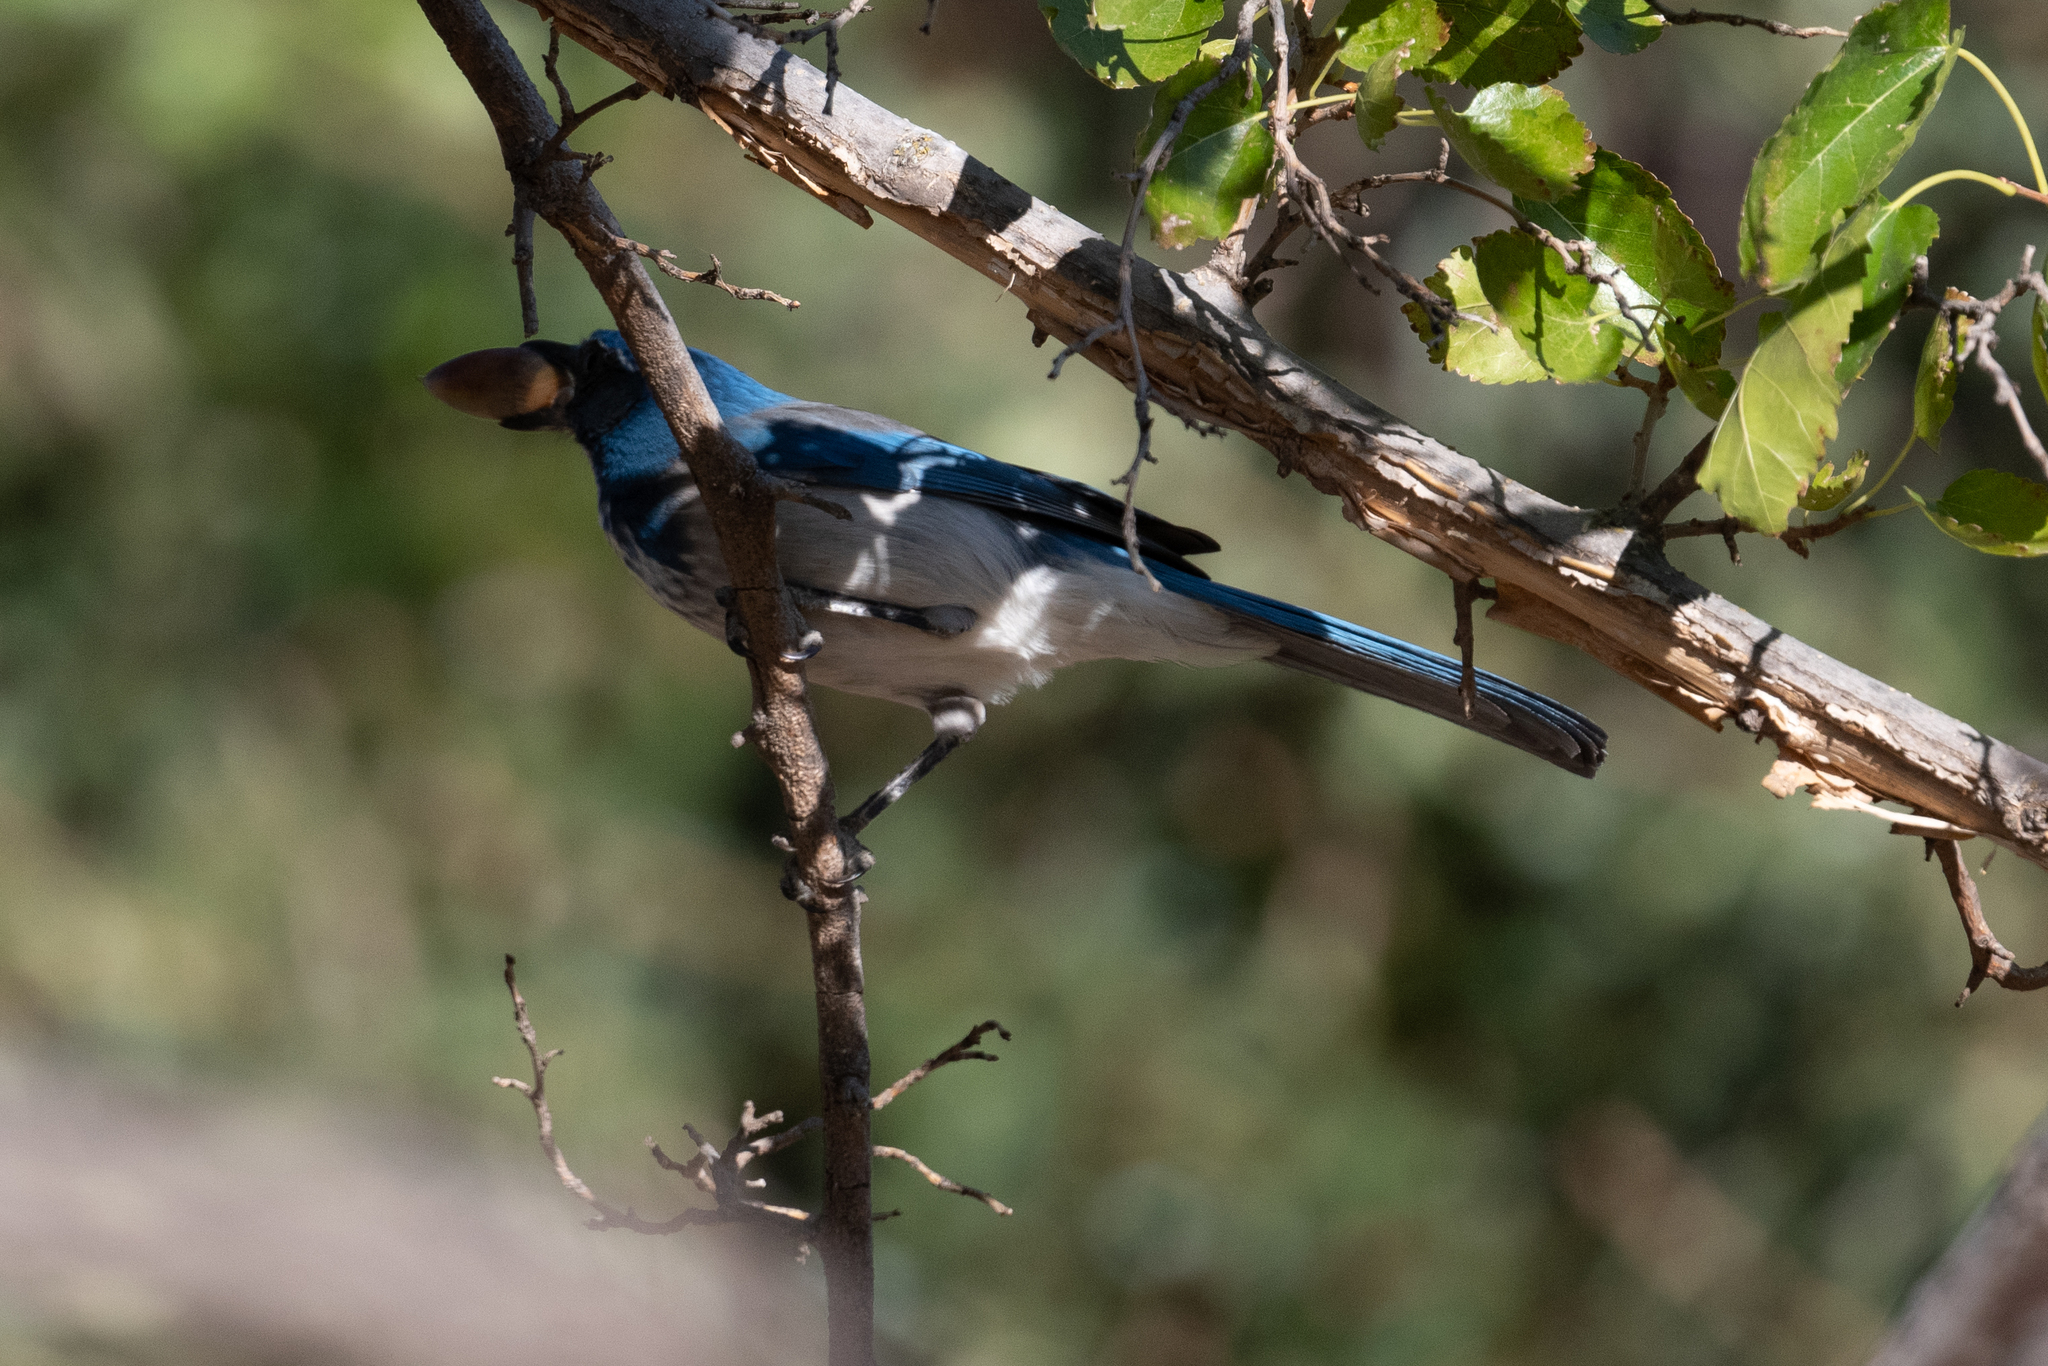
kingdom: Animalia
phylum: Chordata
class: Aves
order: Passeriformes
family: Corvidae
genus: Aphelocoma
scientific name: Aphelocoma californica
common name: California scrub-jay
